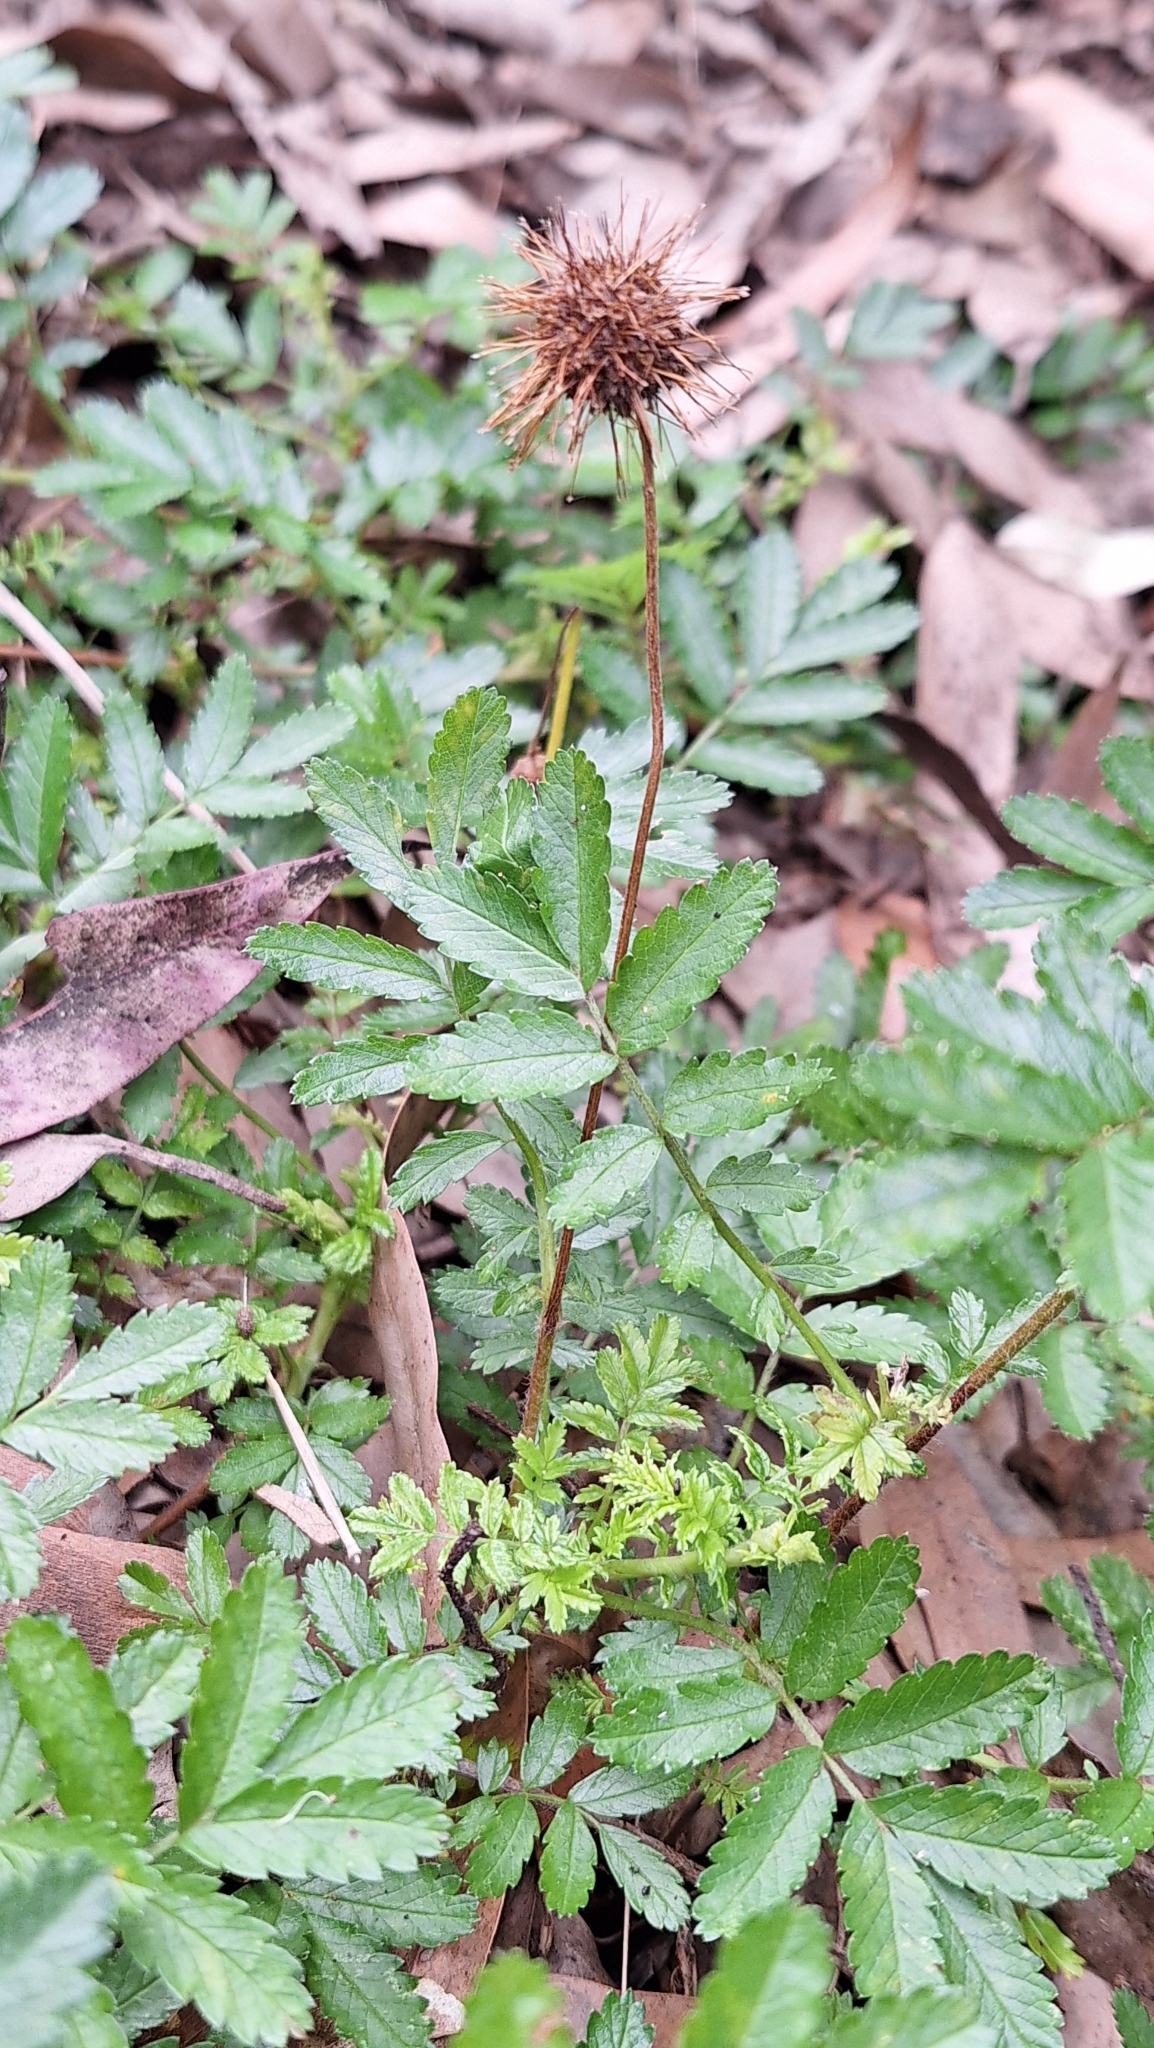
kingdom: Plantae
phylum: Tracheophyta
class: Magnoliopsida
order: Rosales
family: Rosaceae
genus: Acaena
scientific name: Acaena novae-zelandiae
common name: Pirri-pirri-bur
